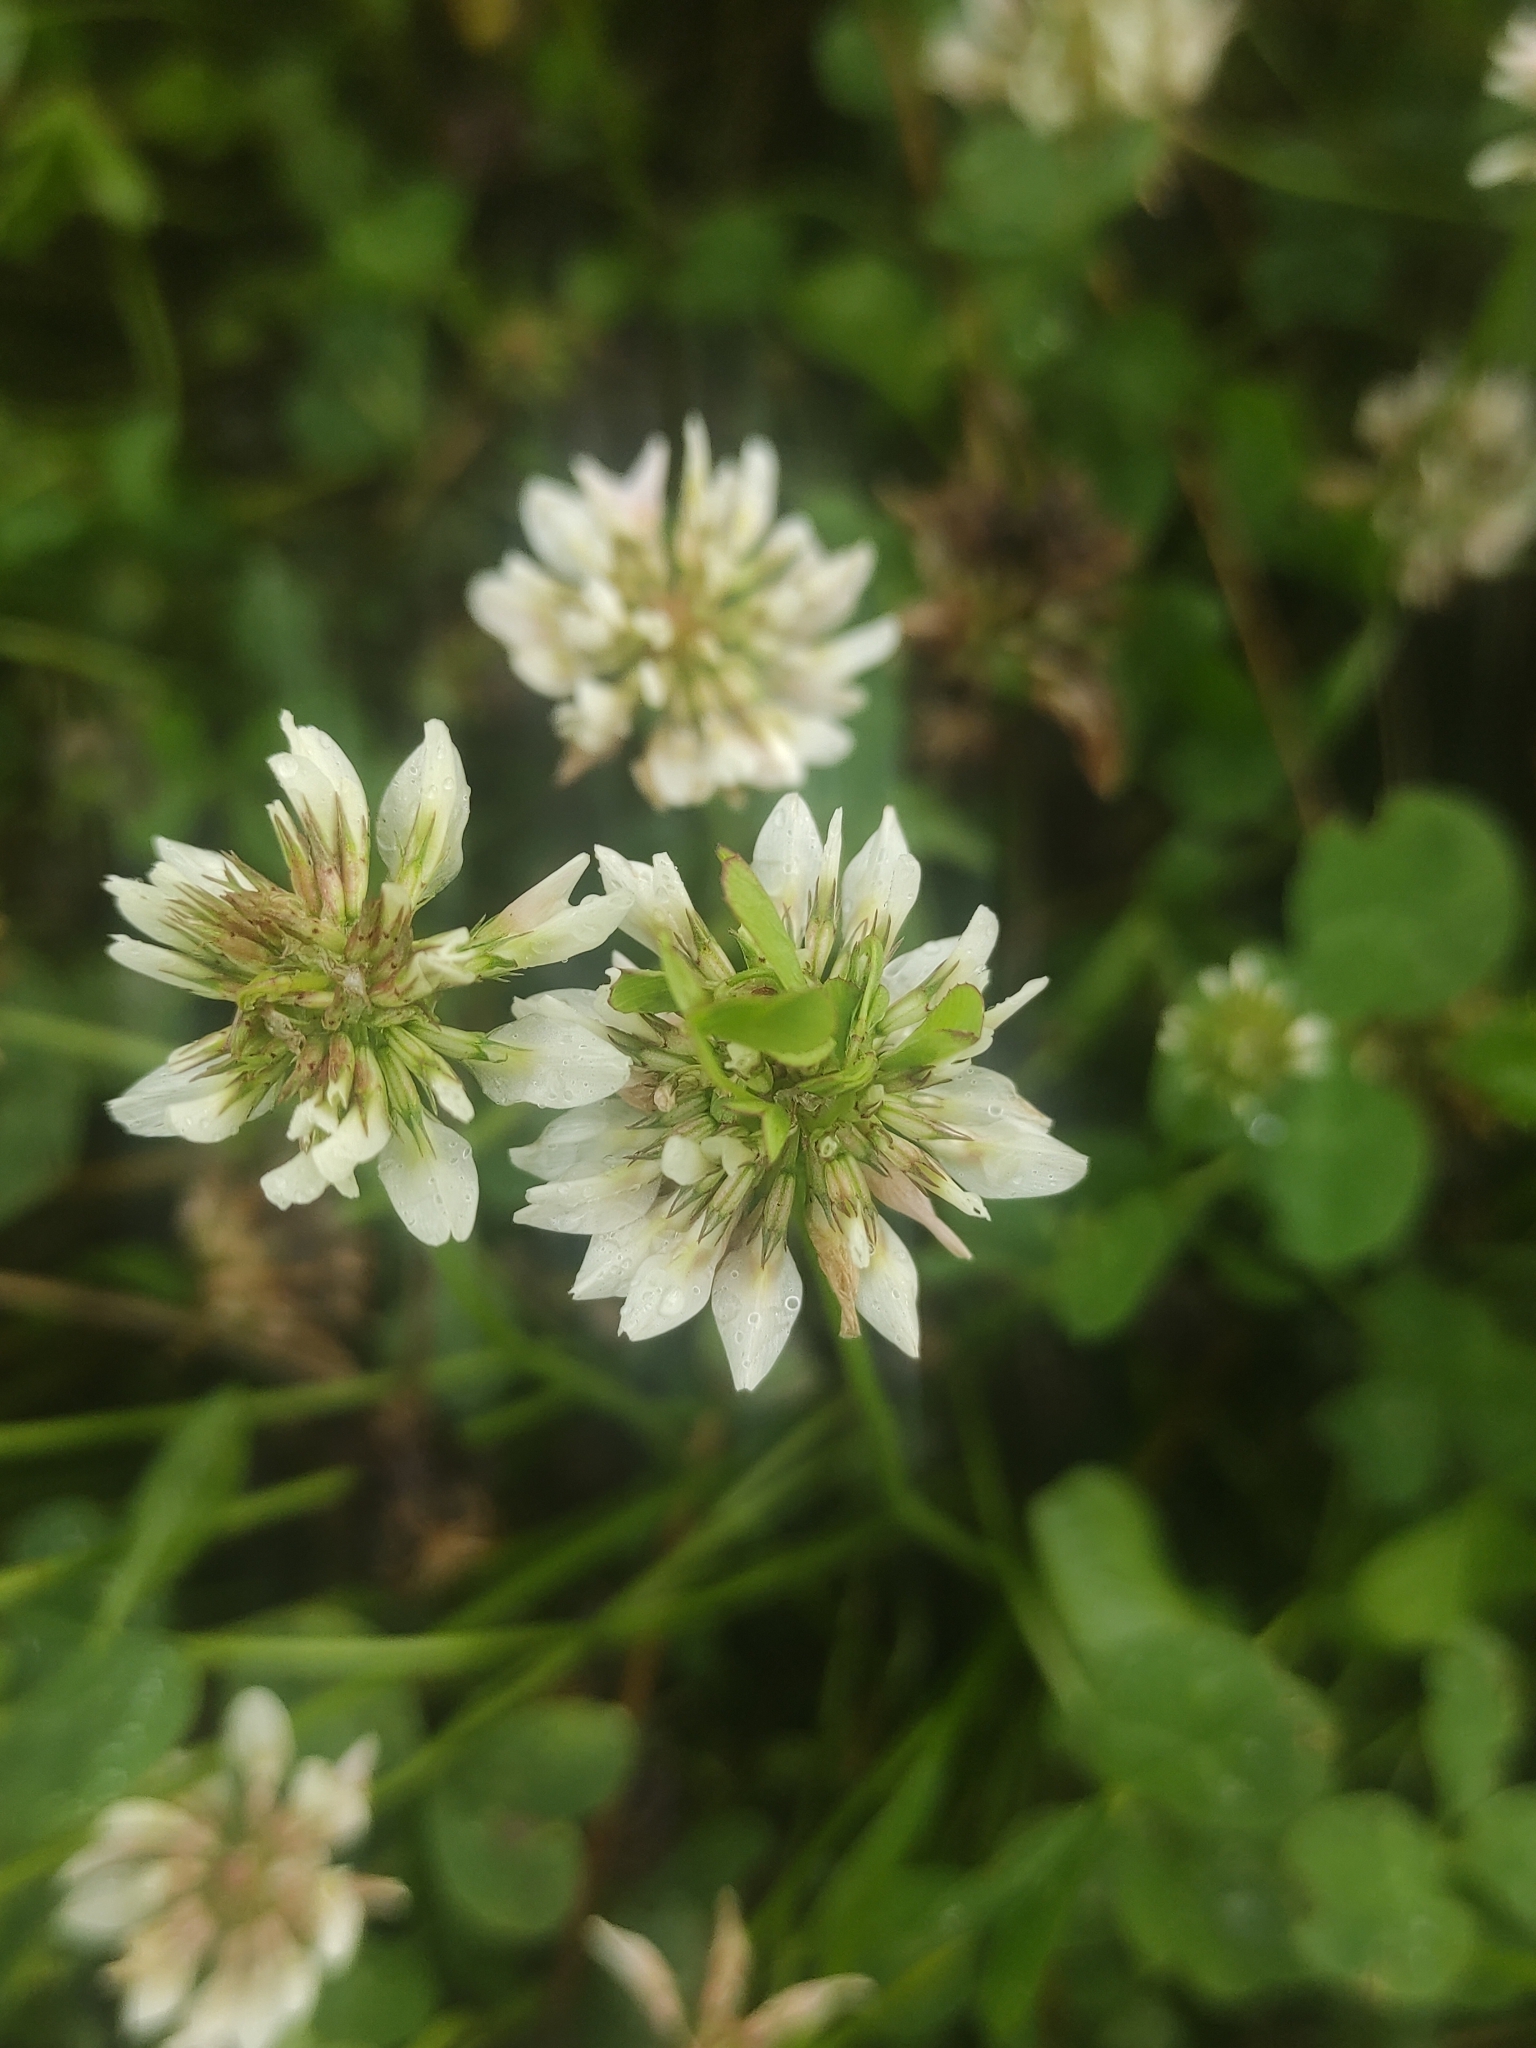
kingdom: Plantae
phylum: Tracheophyta
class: Magnoliopsida
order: Fabales
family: Fabaceae
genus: Trifolium
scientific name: Trifolium repens
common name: White clover
